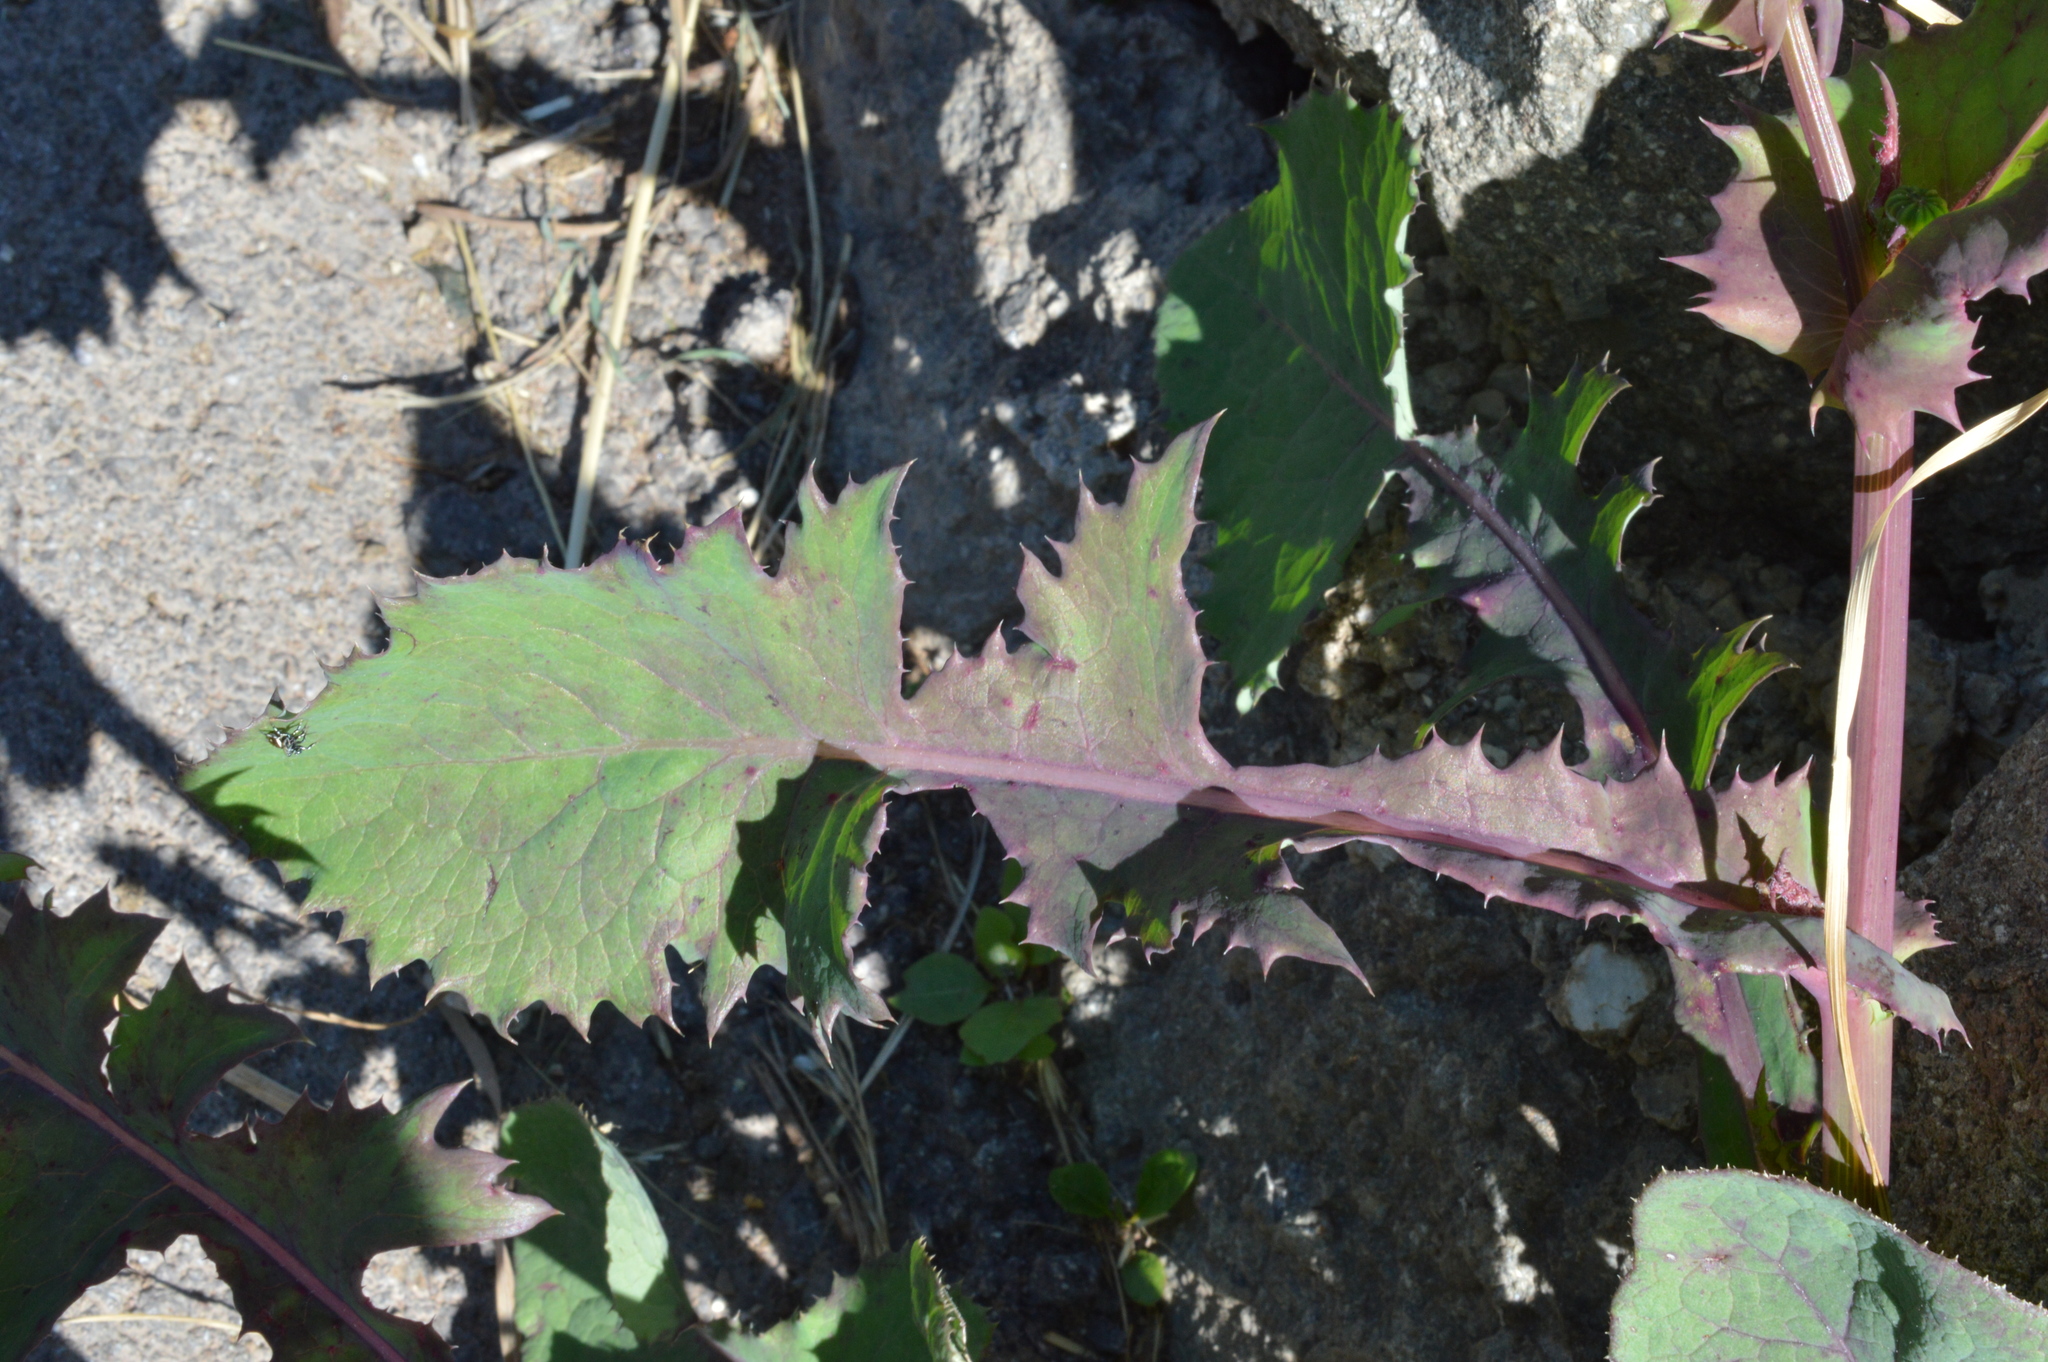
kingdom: Plantae
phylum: Tracheophyta
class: Magnoliopsida
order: Asterales
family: Asteraceae
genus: Sonchus
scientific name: Sonchus oleraceus
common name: Common sowthistle
